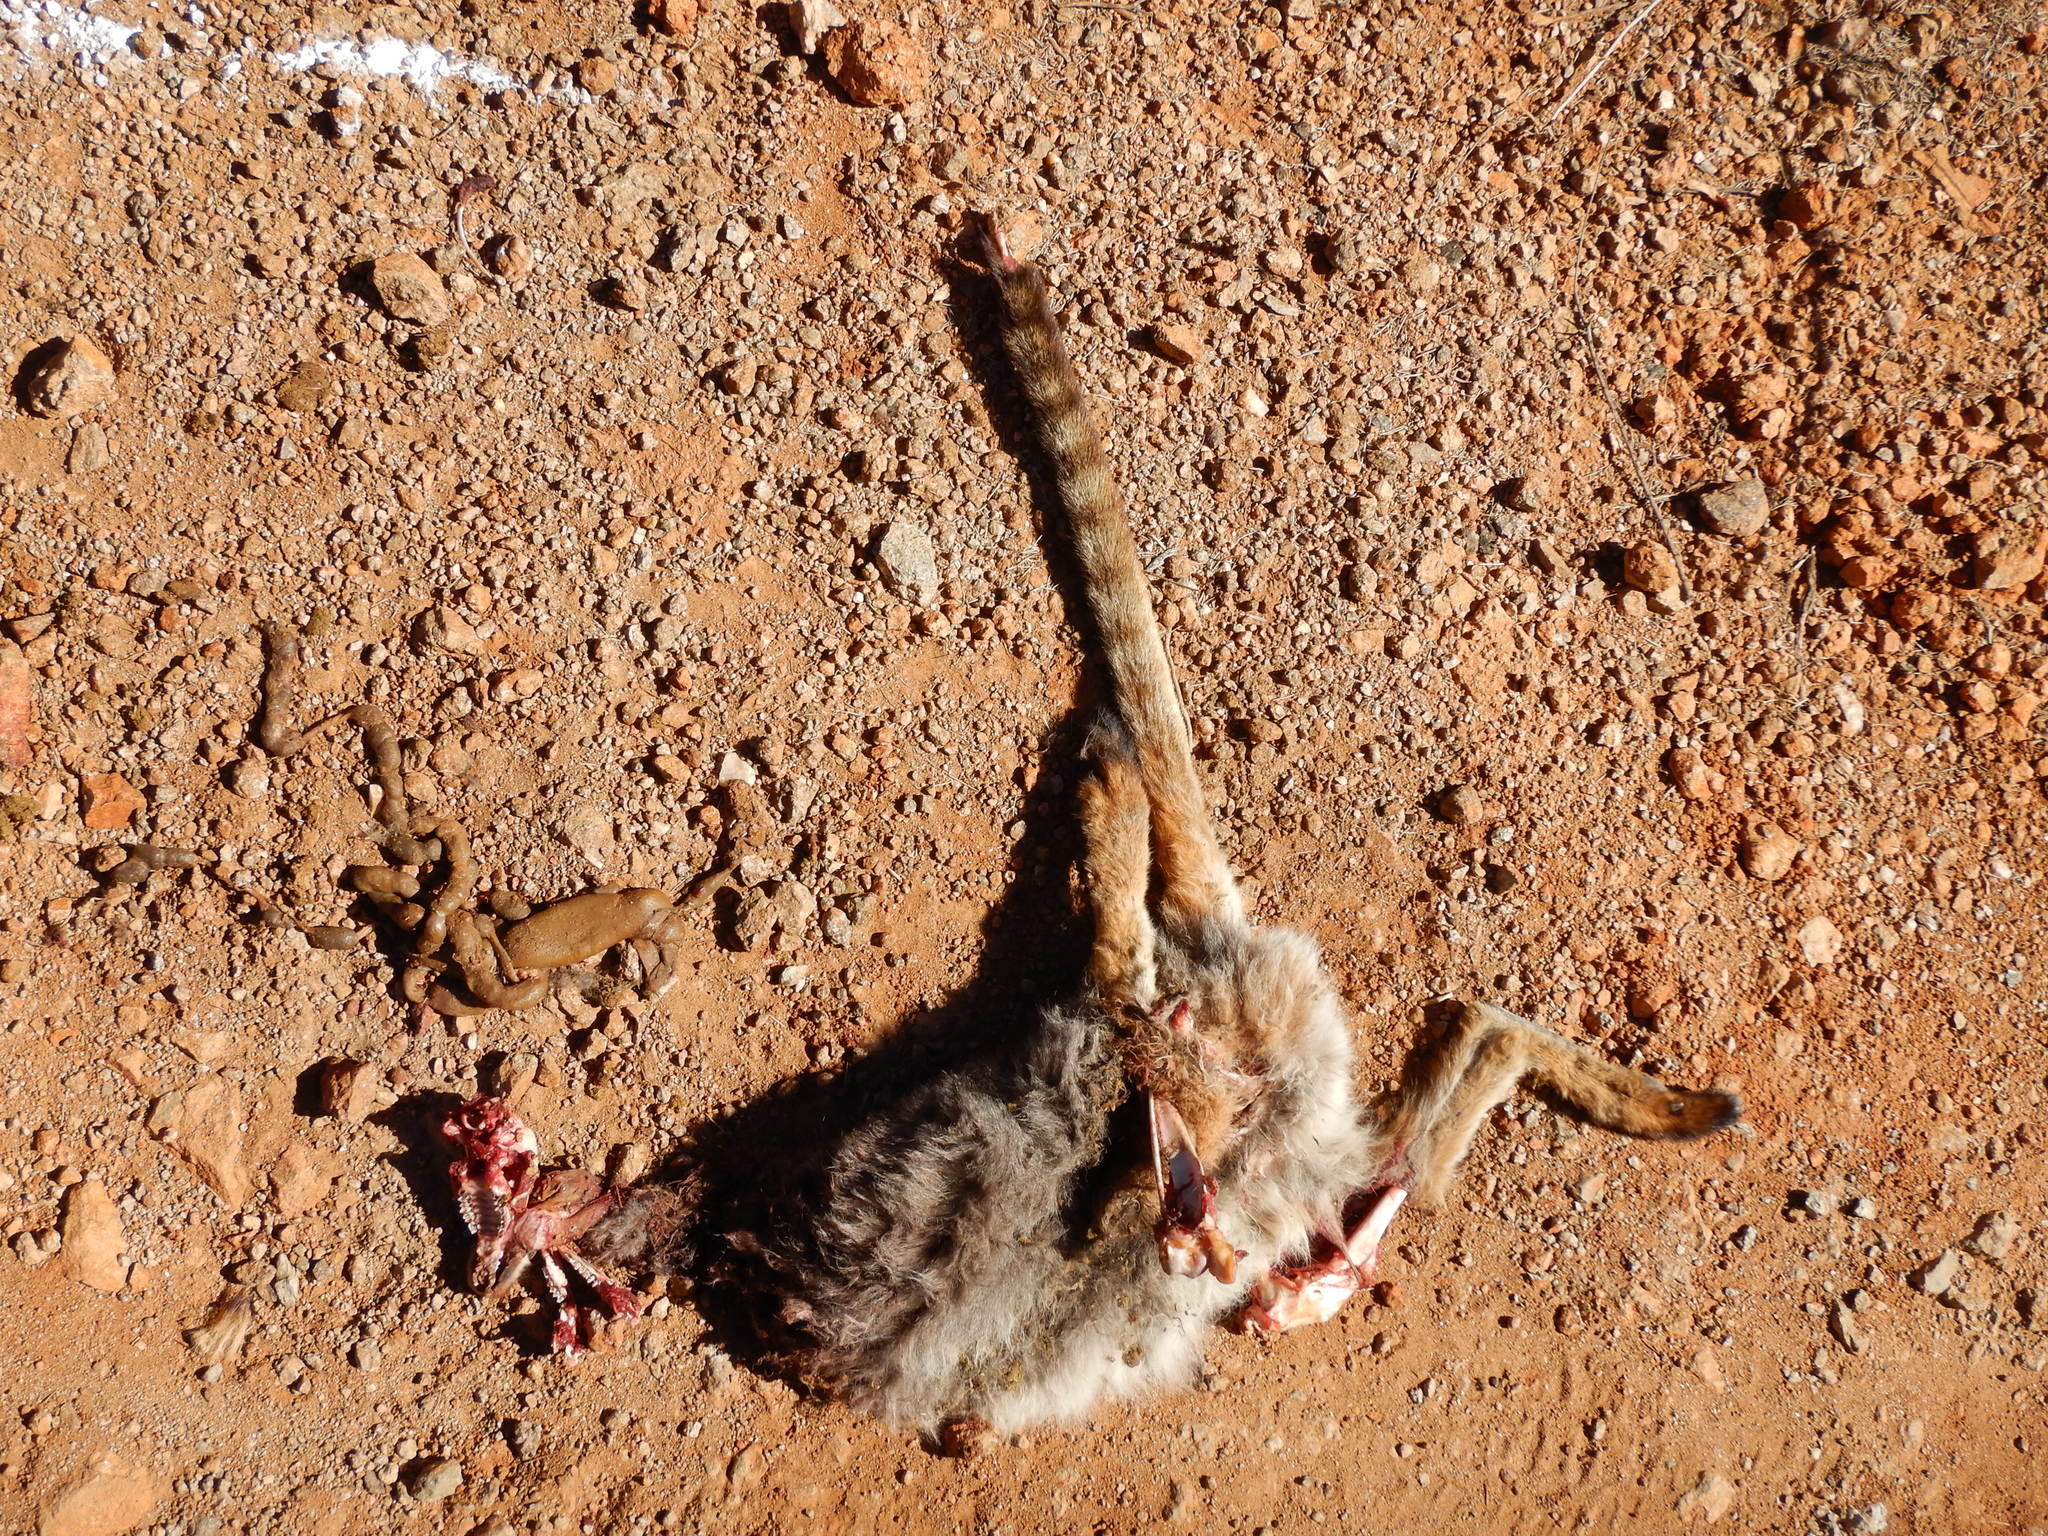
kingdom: Animalia
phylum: Chordata
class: Mammalia
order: Diprotodontia
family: Macropodidae
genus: Petrogale
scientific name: Petrogale xanthopus
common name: Yellow-footed rock-wallaby
